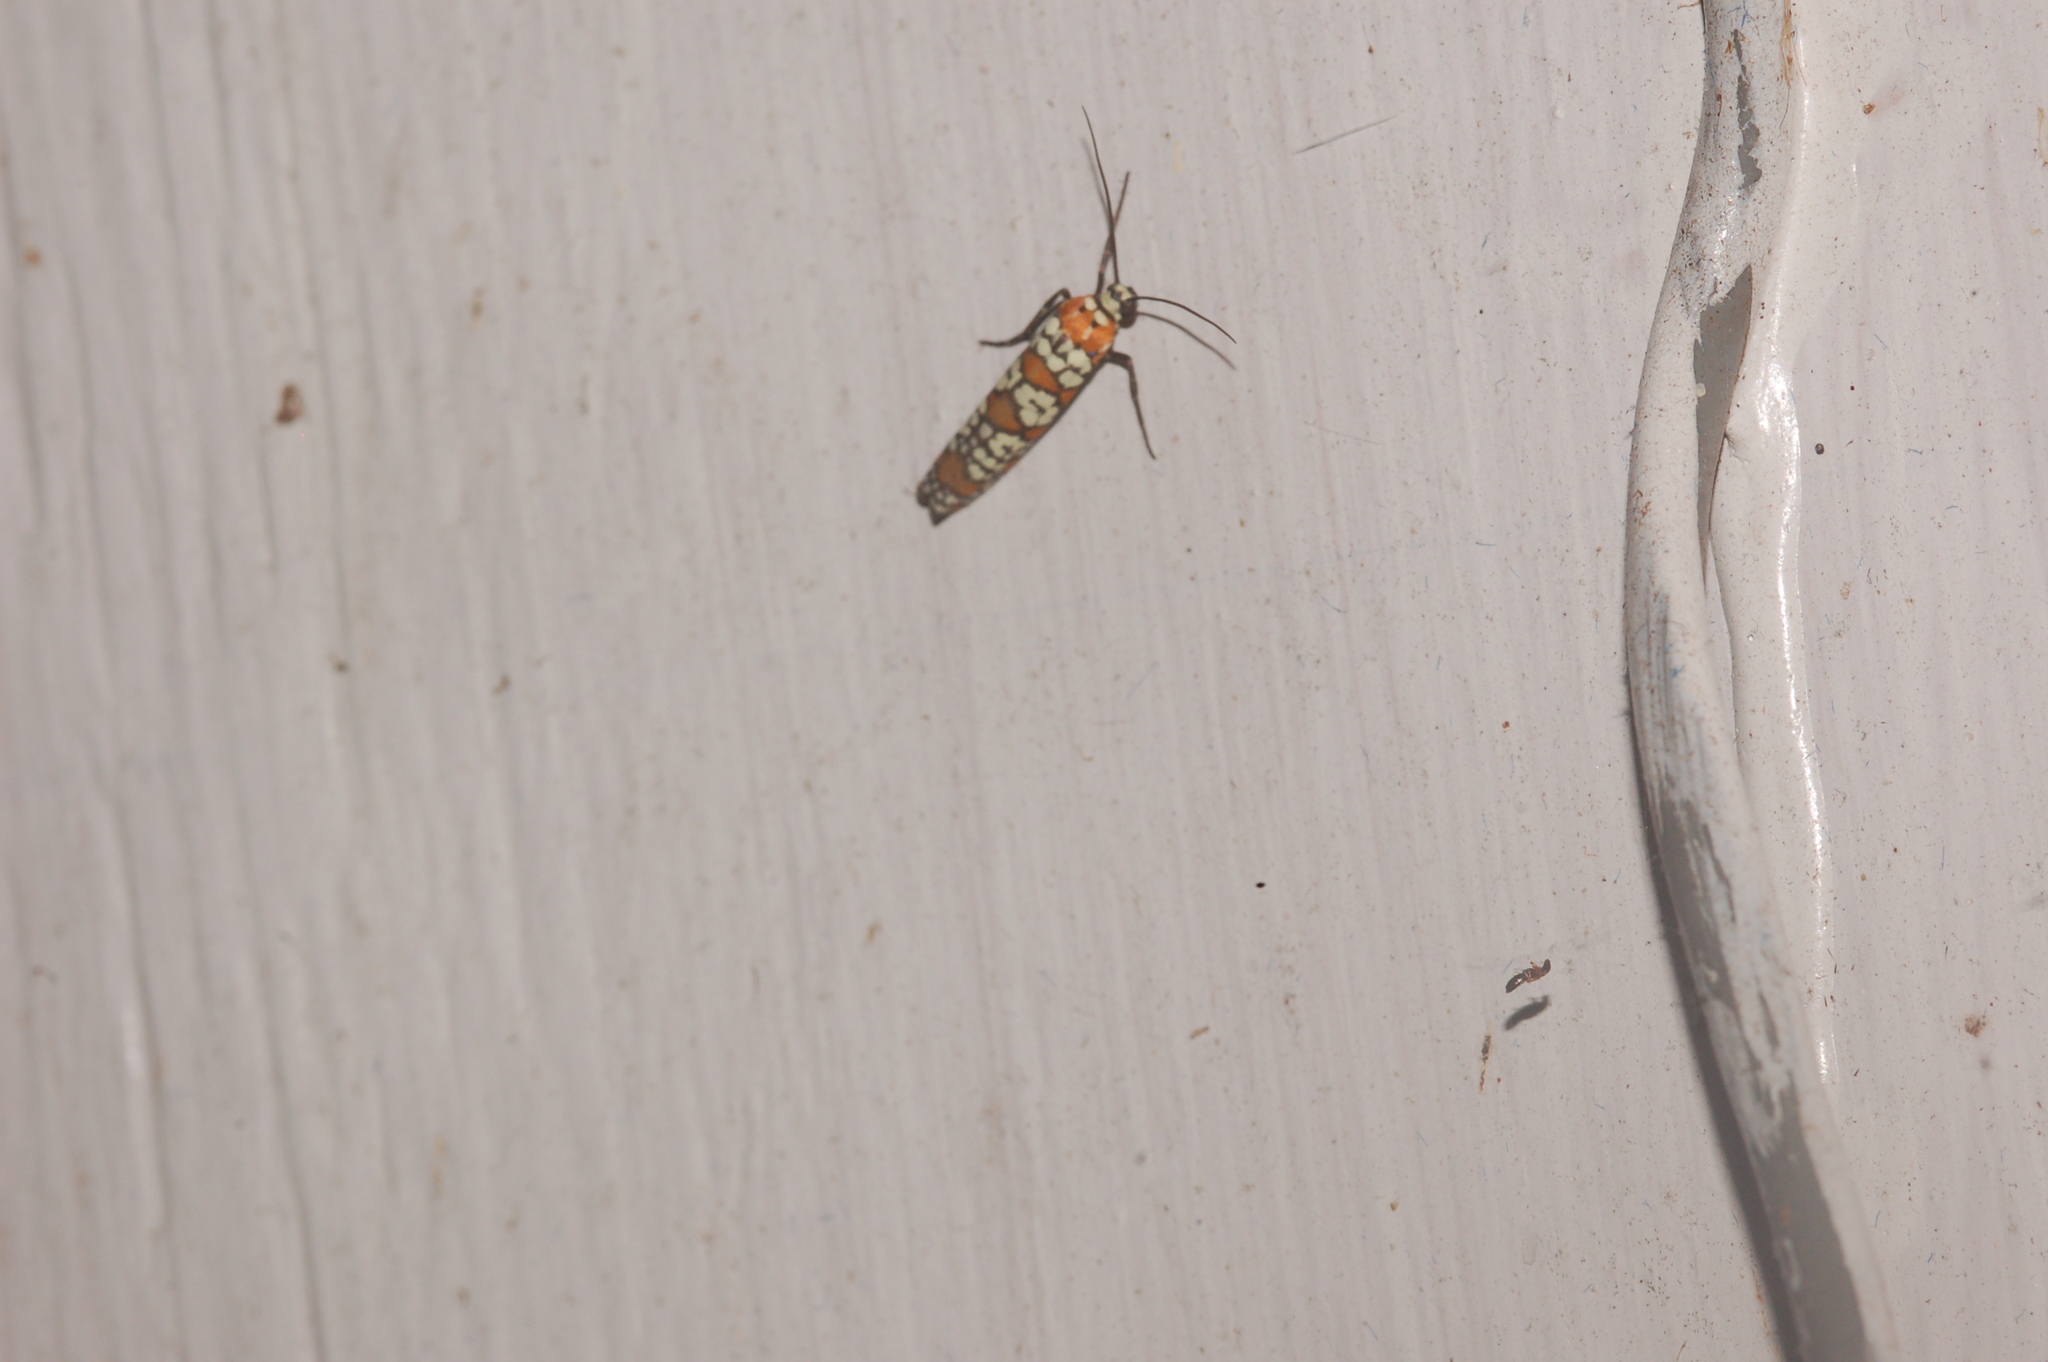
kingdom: Animalia
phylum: Arthropoda
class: Insecta
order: Lepidoptera
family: Attevidae
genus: Atteva
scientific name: Atteva punctella
